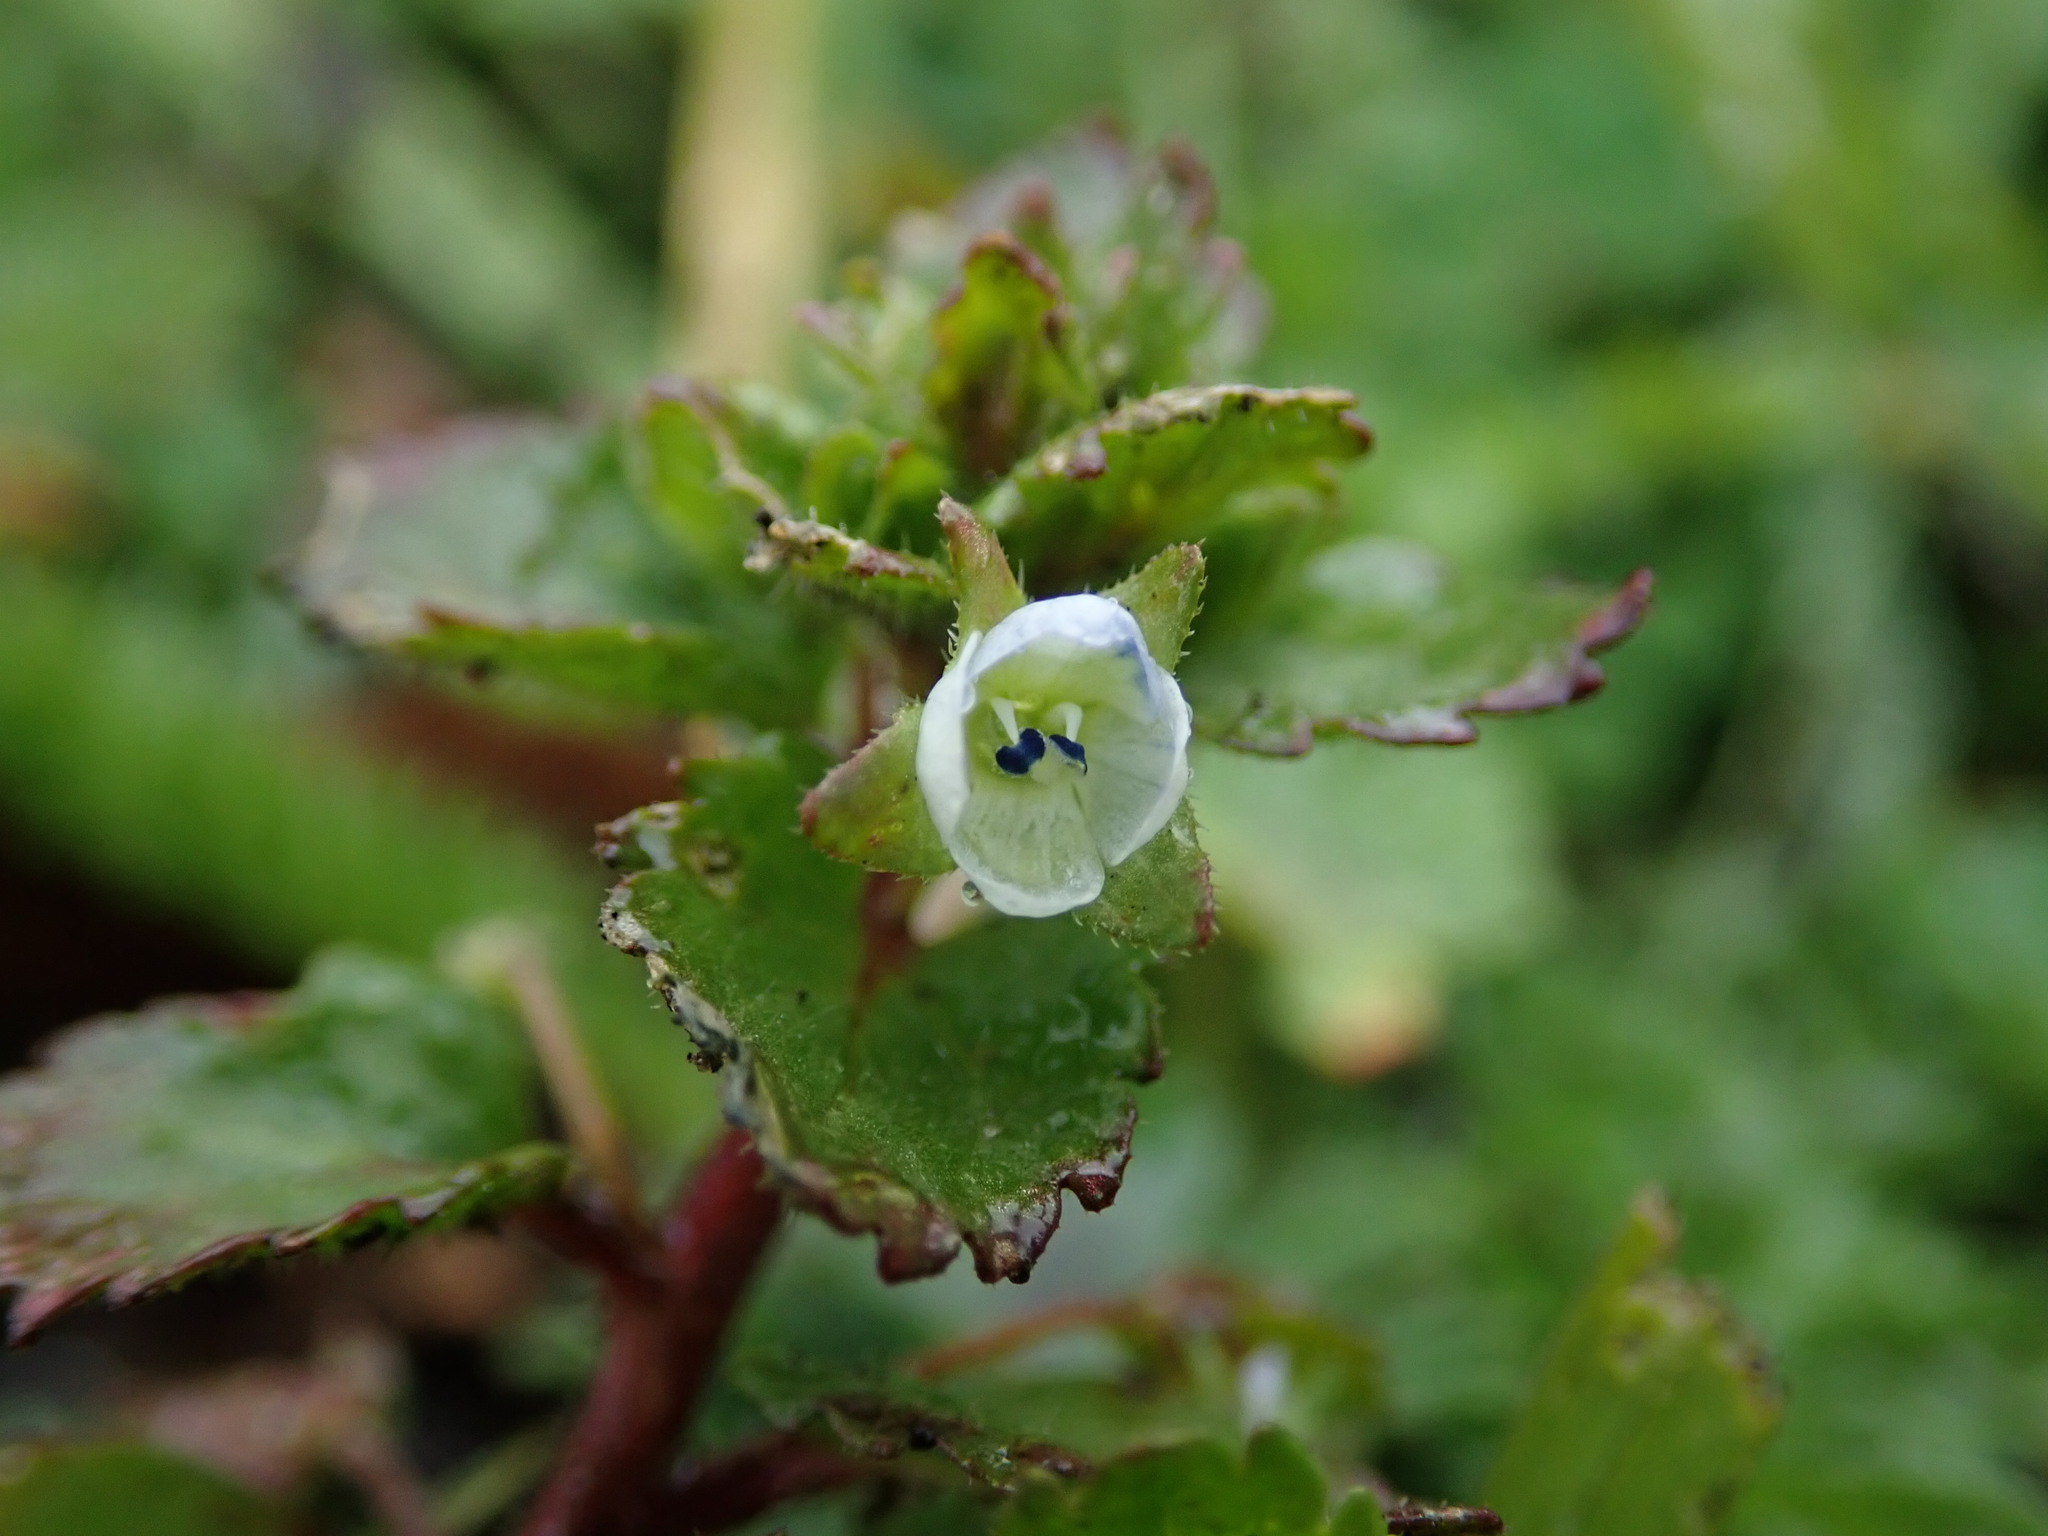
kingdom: Plantae
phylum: Tracheophyta
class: Magnoliopsida
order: Lamiales
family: Plantaginaceae
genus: Veronica
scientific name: Veronica agrestis
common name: Green field-speedwell
